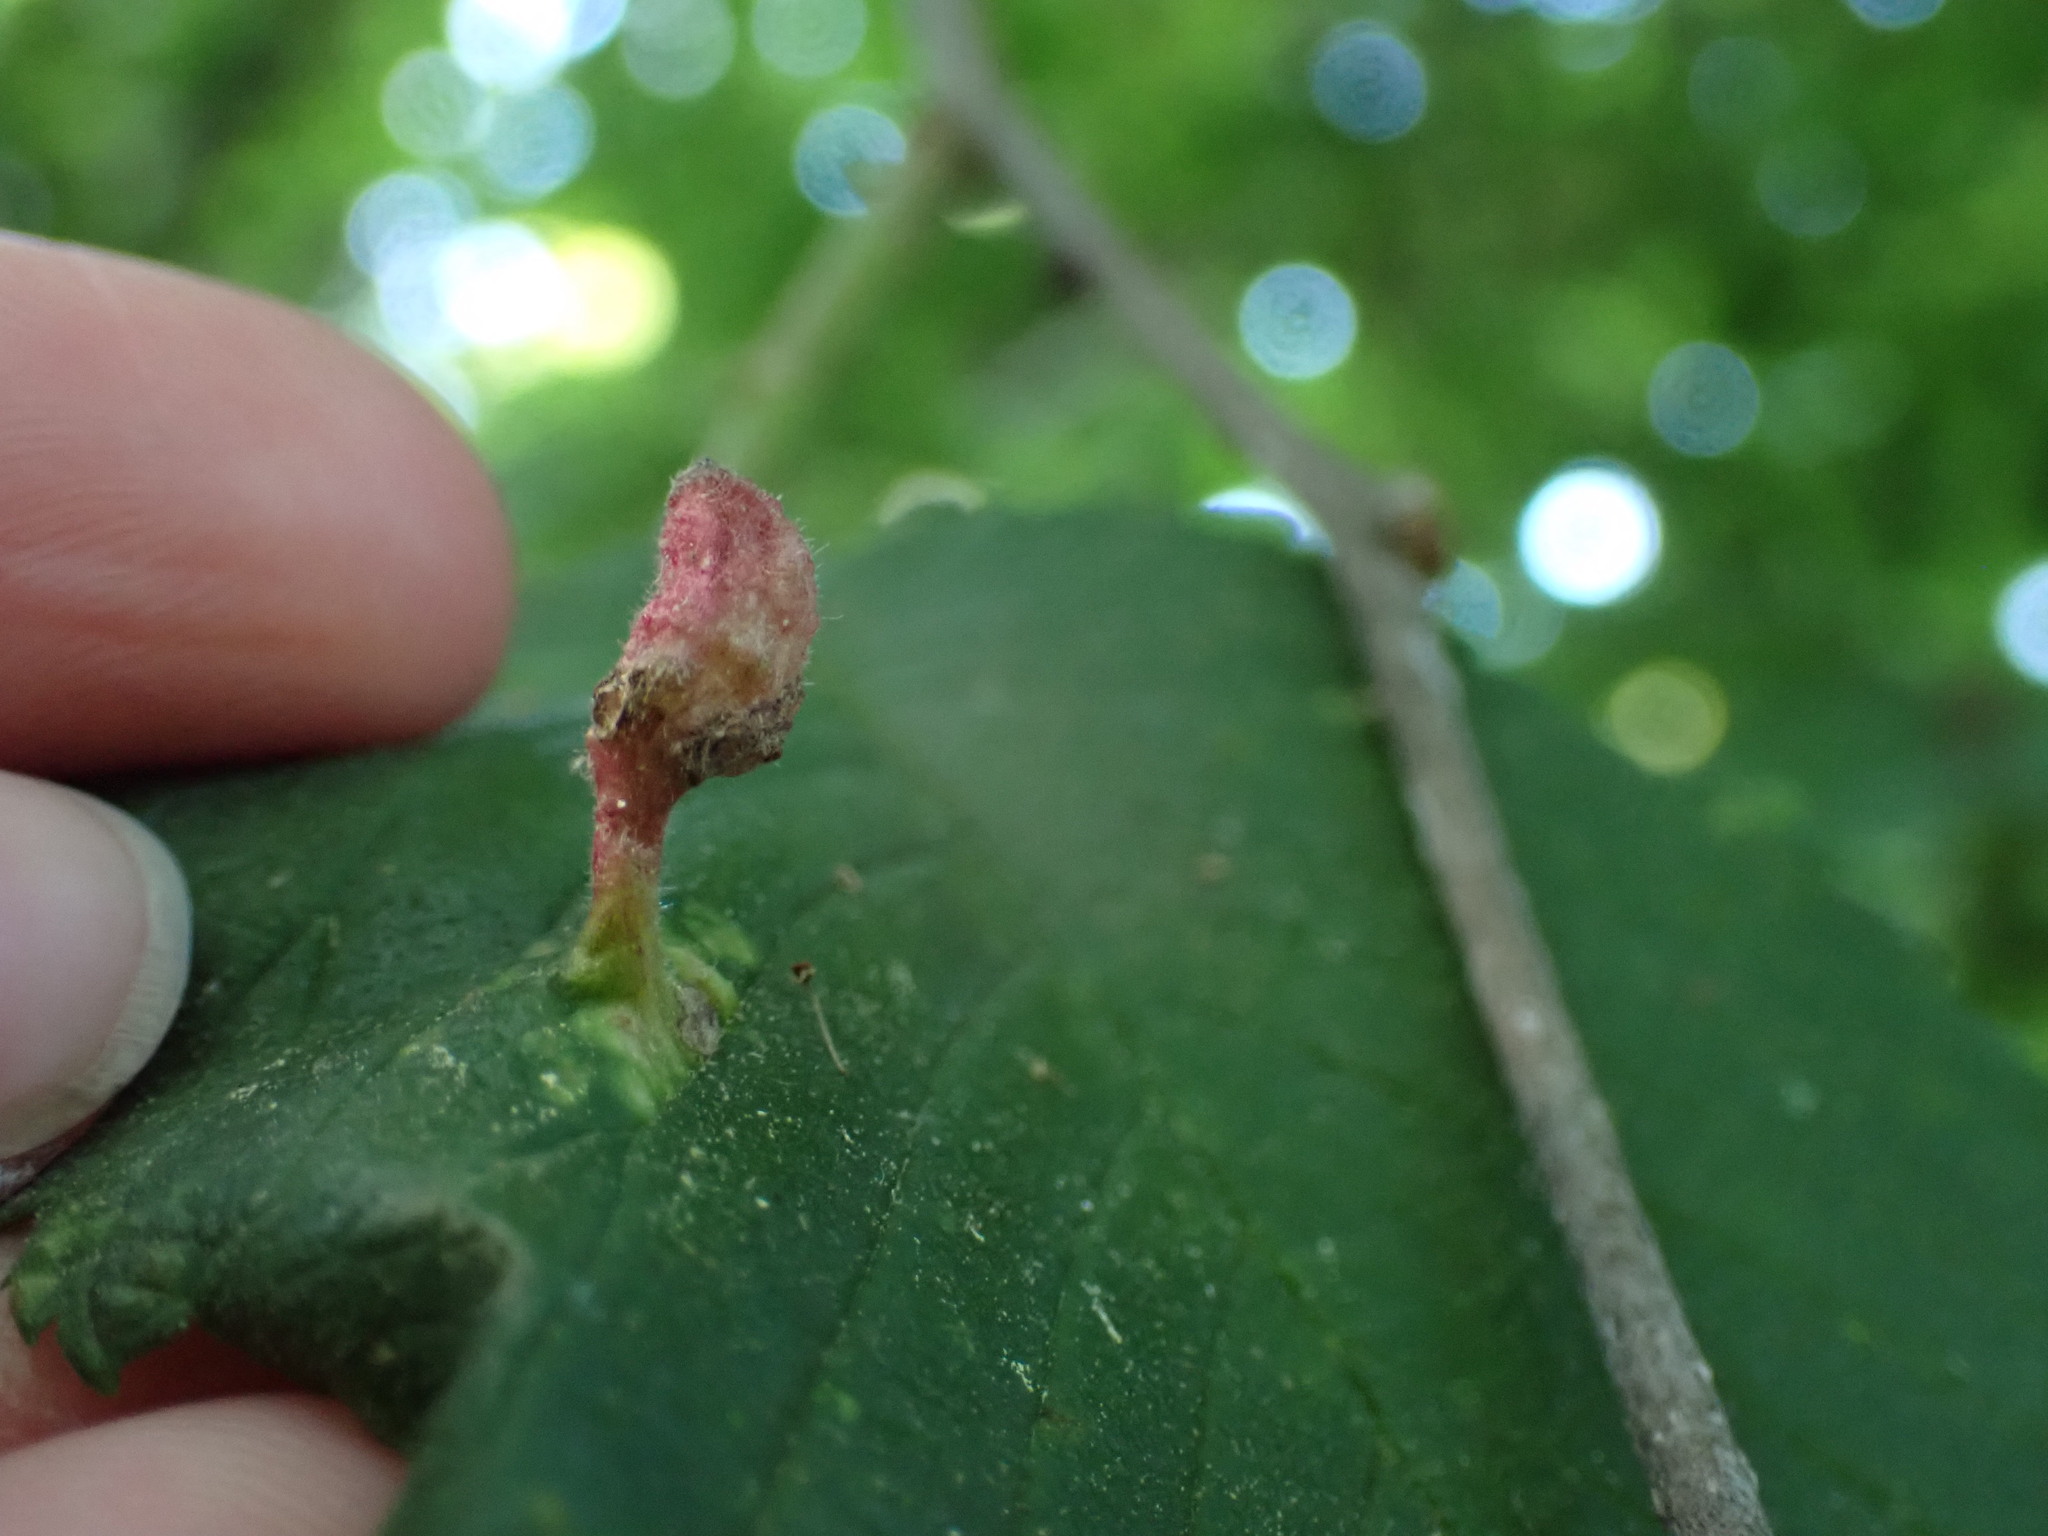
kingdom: Animalia
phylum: Arthropoda
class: Insecta
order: Hemiptera
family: Aphididae
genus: Tetraneura
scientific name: Tetraneura nigriabdominalis
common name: Aphid
